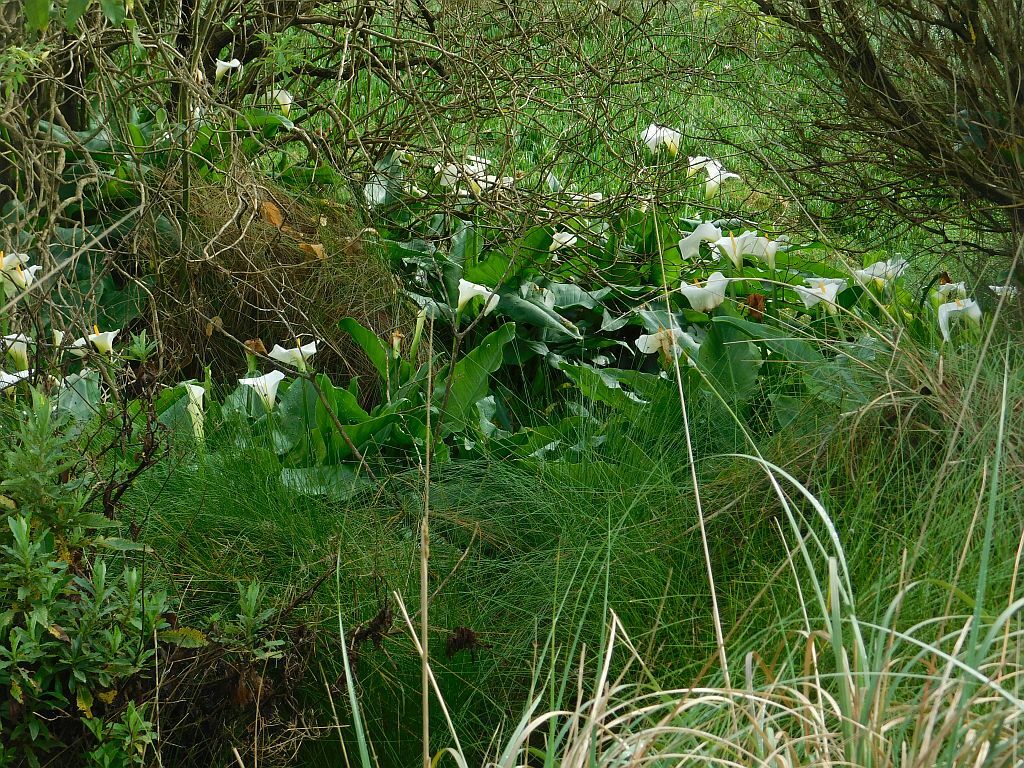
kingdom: Plantae
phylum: Tracheophyta
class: Liliopsida
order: Alismatales
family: Araceae
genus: Zantedeschia
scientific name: Zantedeschia aethiopica
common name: Altar-lily
